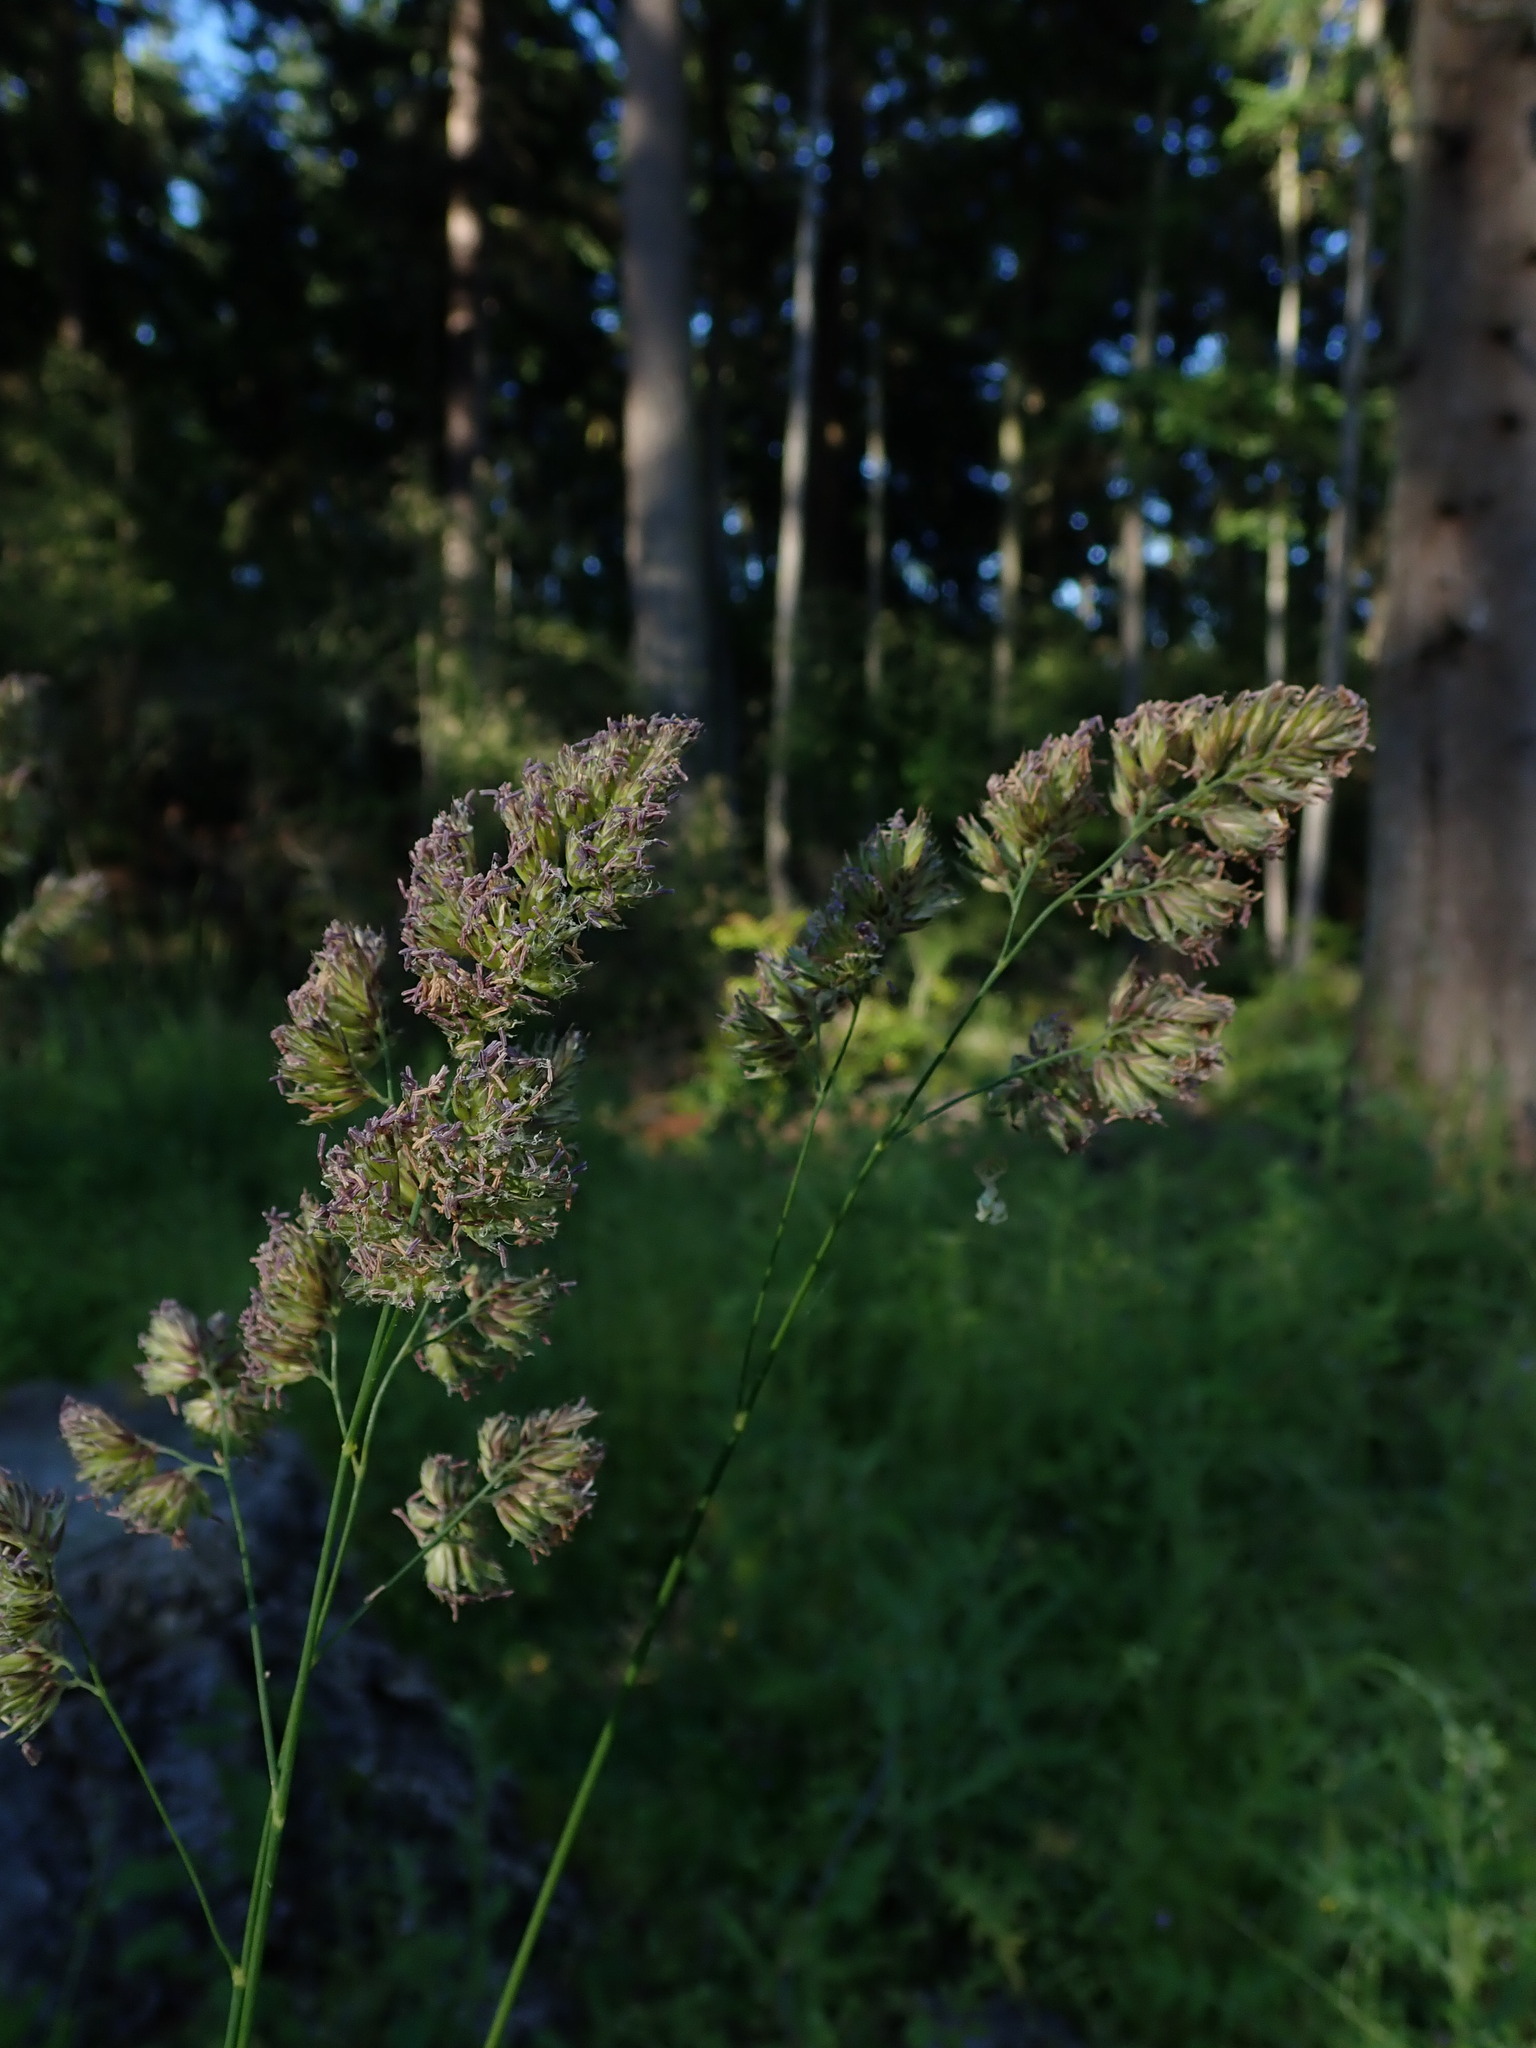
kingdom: Plantae
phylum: Tracheophyta
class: Liliopsida
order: Poales
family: Poaceae
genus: Dactylis
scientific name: Dactylis glomerata
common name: Orchardgrass
